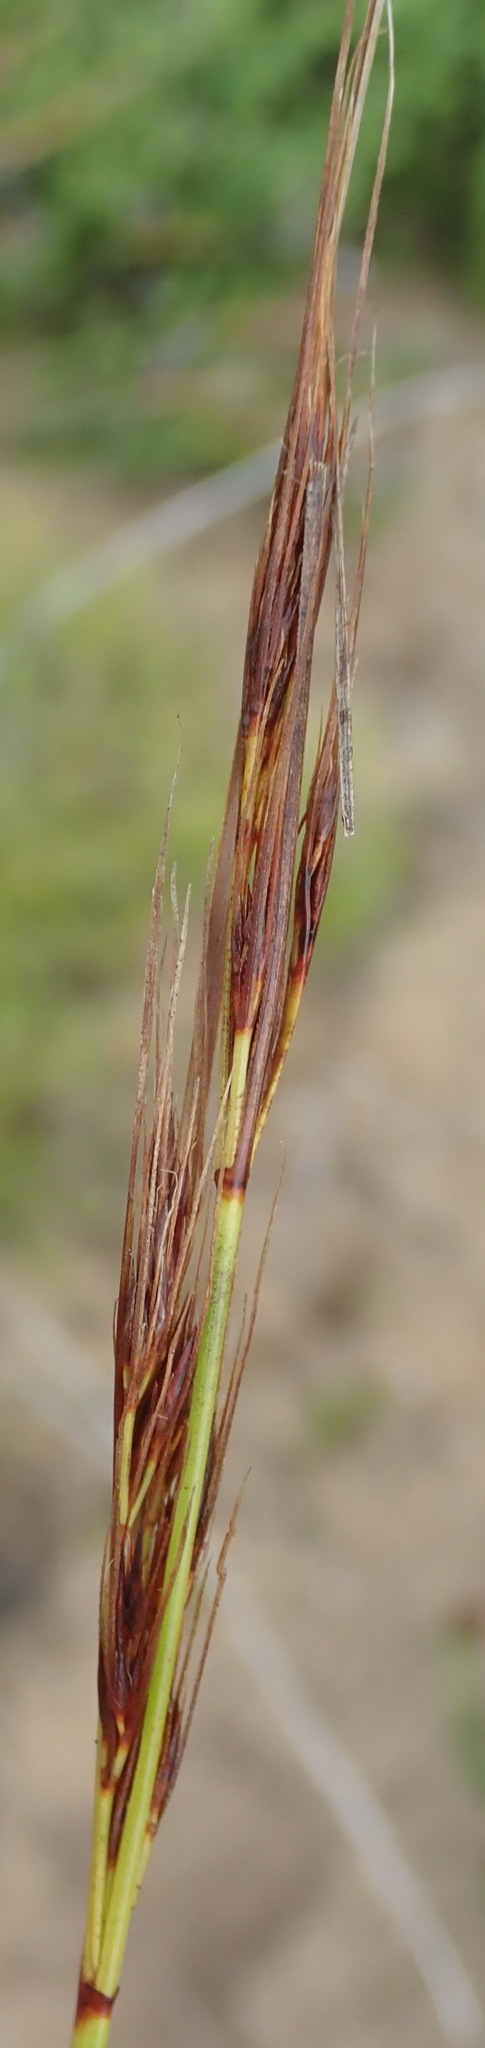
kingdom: Plantae
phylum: Tracheophyta
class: Liliopsida
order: Poales
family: Cyperaceae
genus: Schoenus
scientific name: Schoenus graciliculmis
